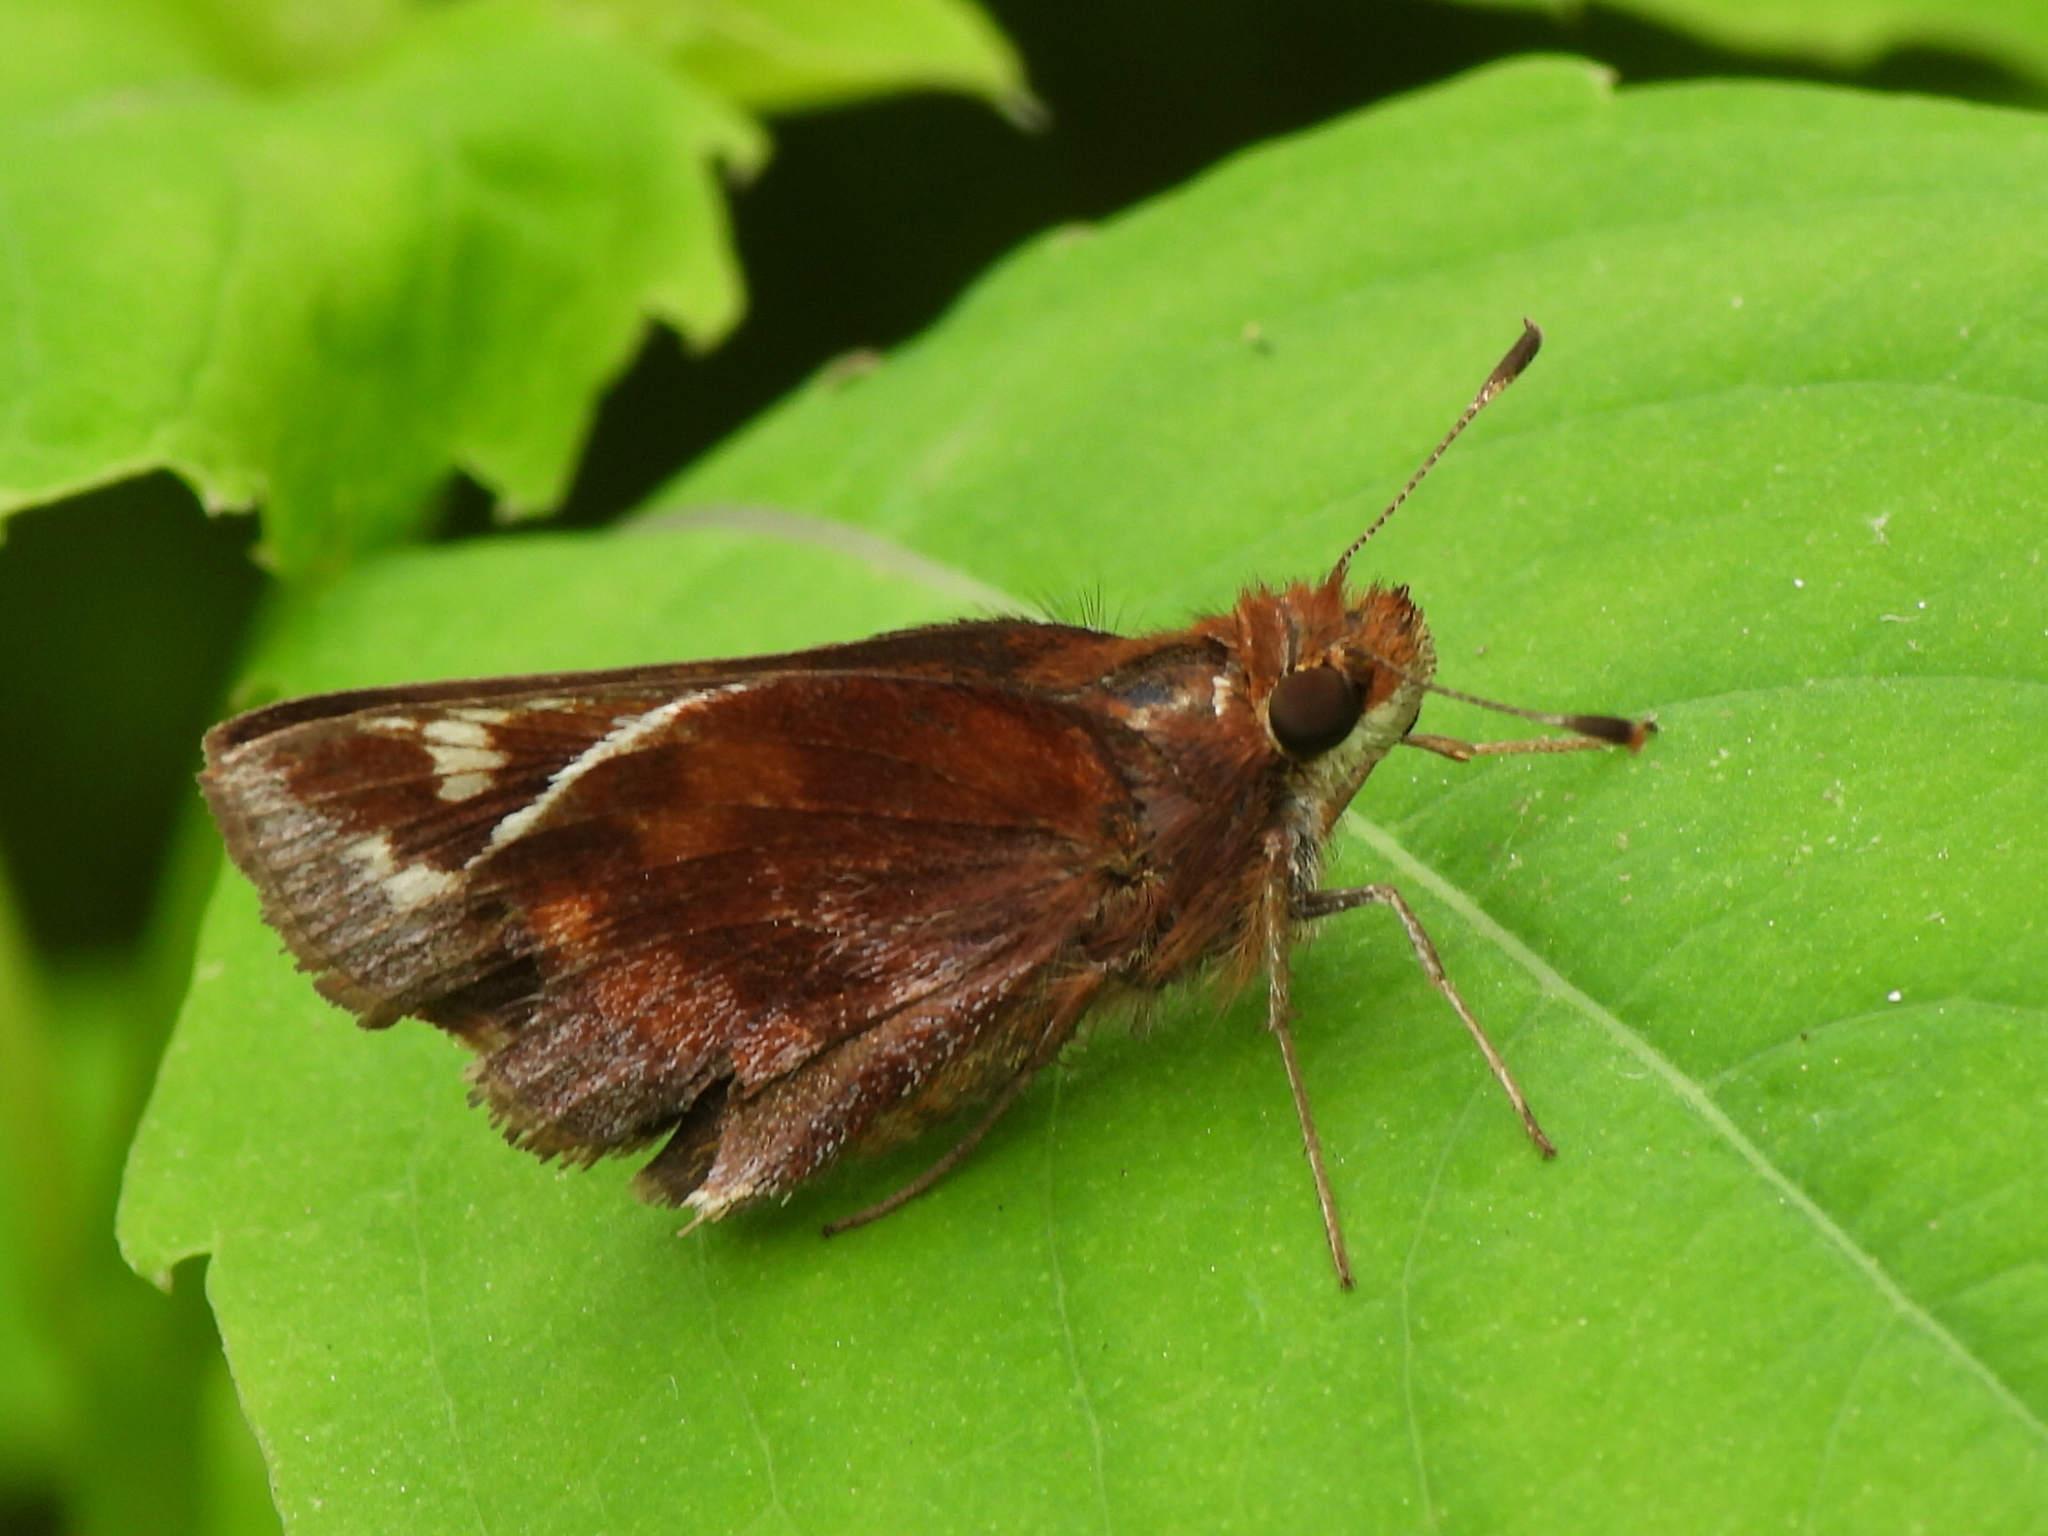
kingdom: Animalia
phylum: Arthropoda
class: Insecta
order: Lepidoptera
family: Hesperiidae
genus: Lon
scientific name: Lon zabulon
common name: Zabulon skipper
